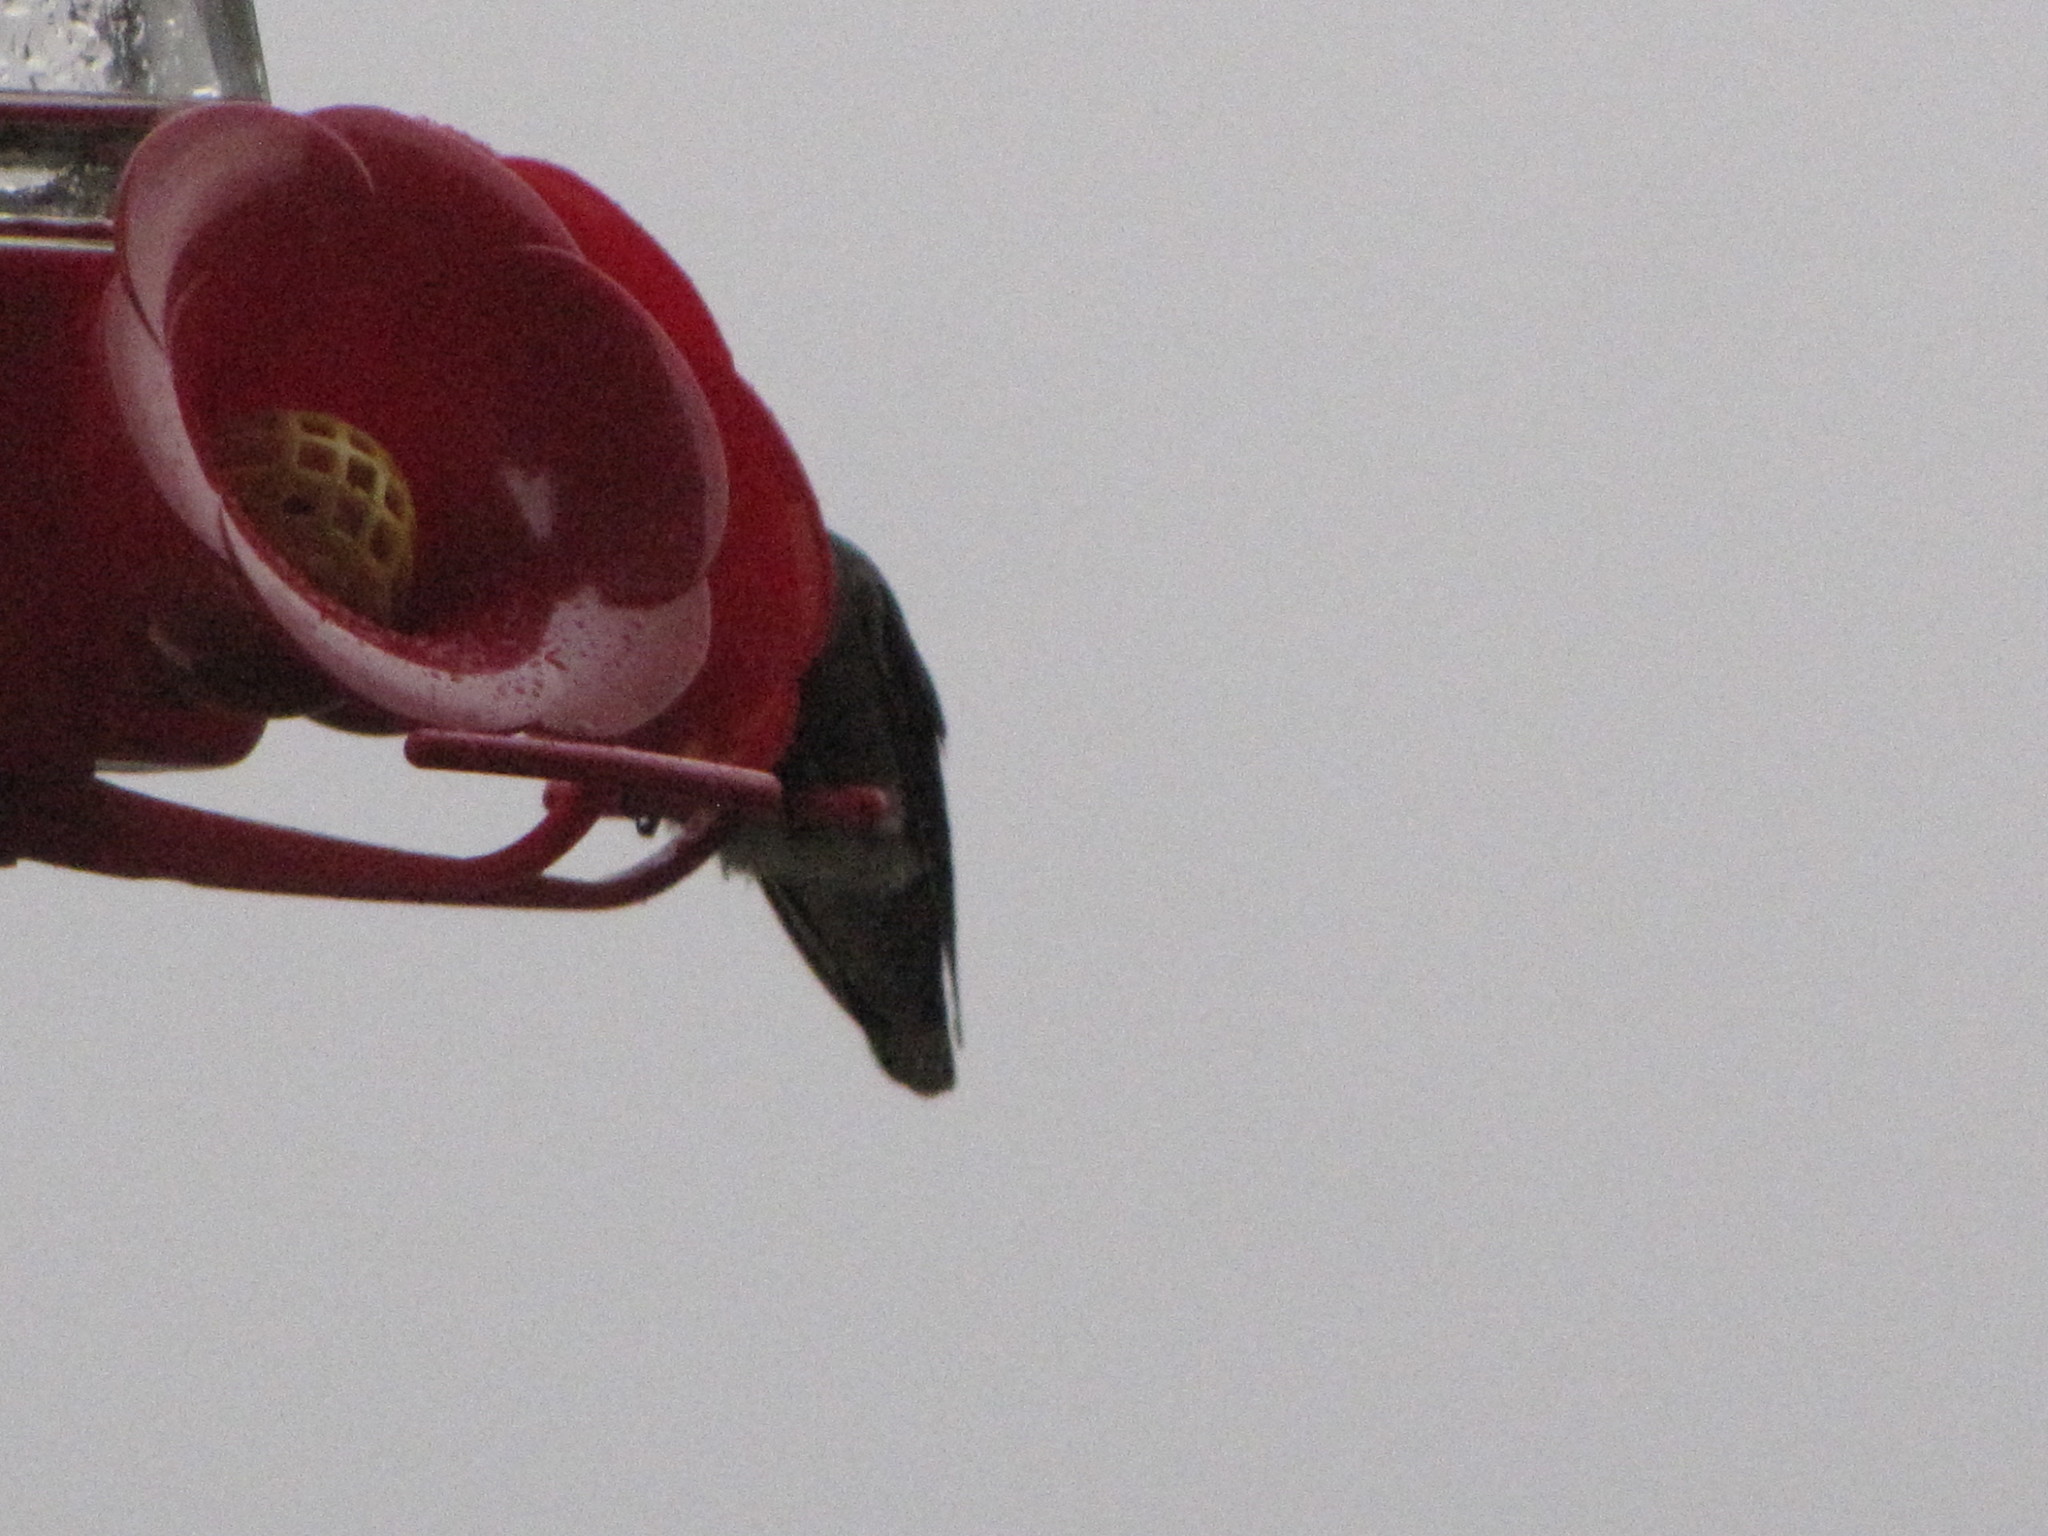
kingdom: Animalia
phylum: Chordata
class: Aves
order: Apodiformes
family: Trochilidae
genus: Calypte
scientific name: Calypte anna
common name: Anna's hummingbird
